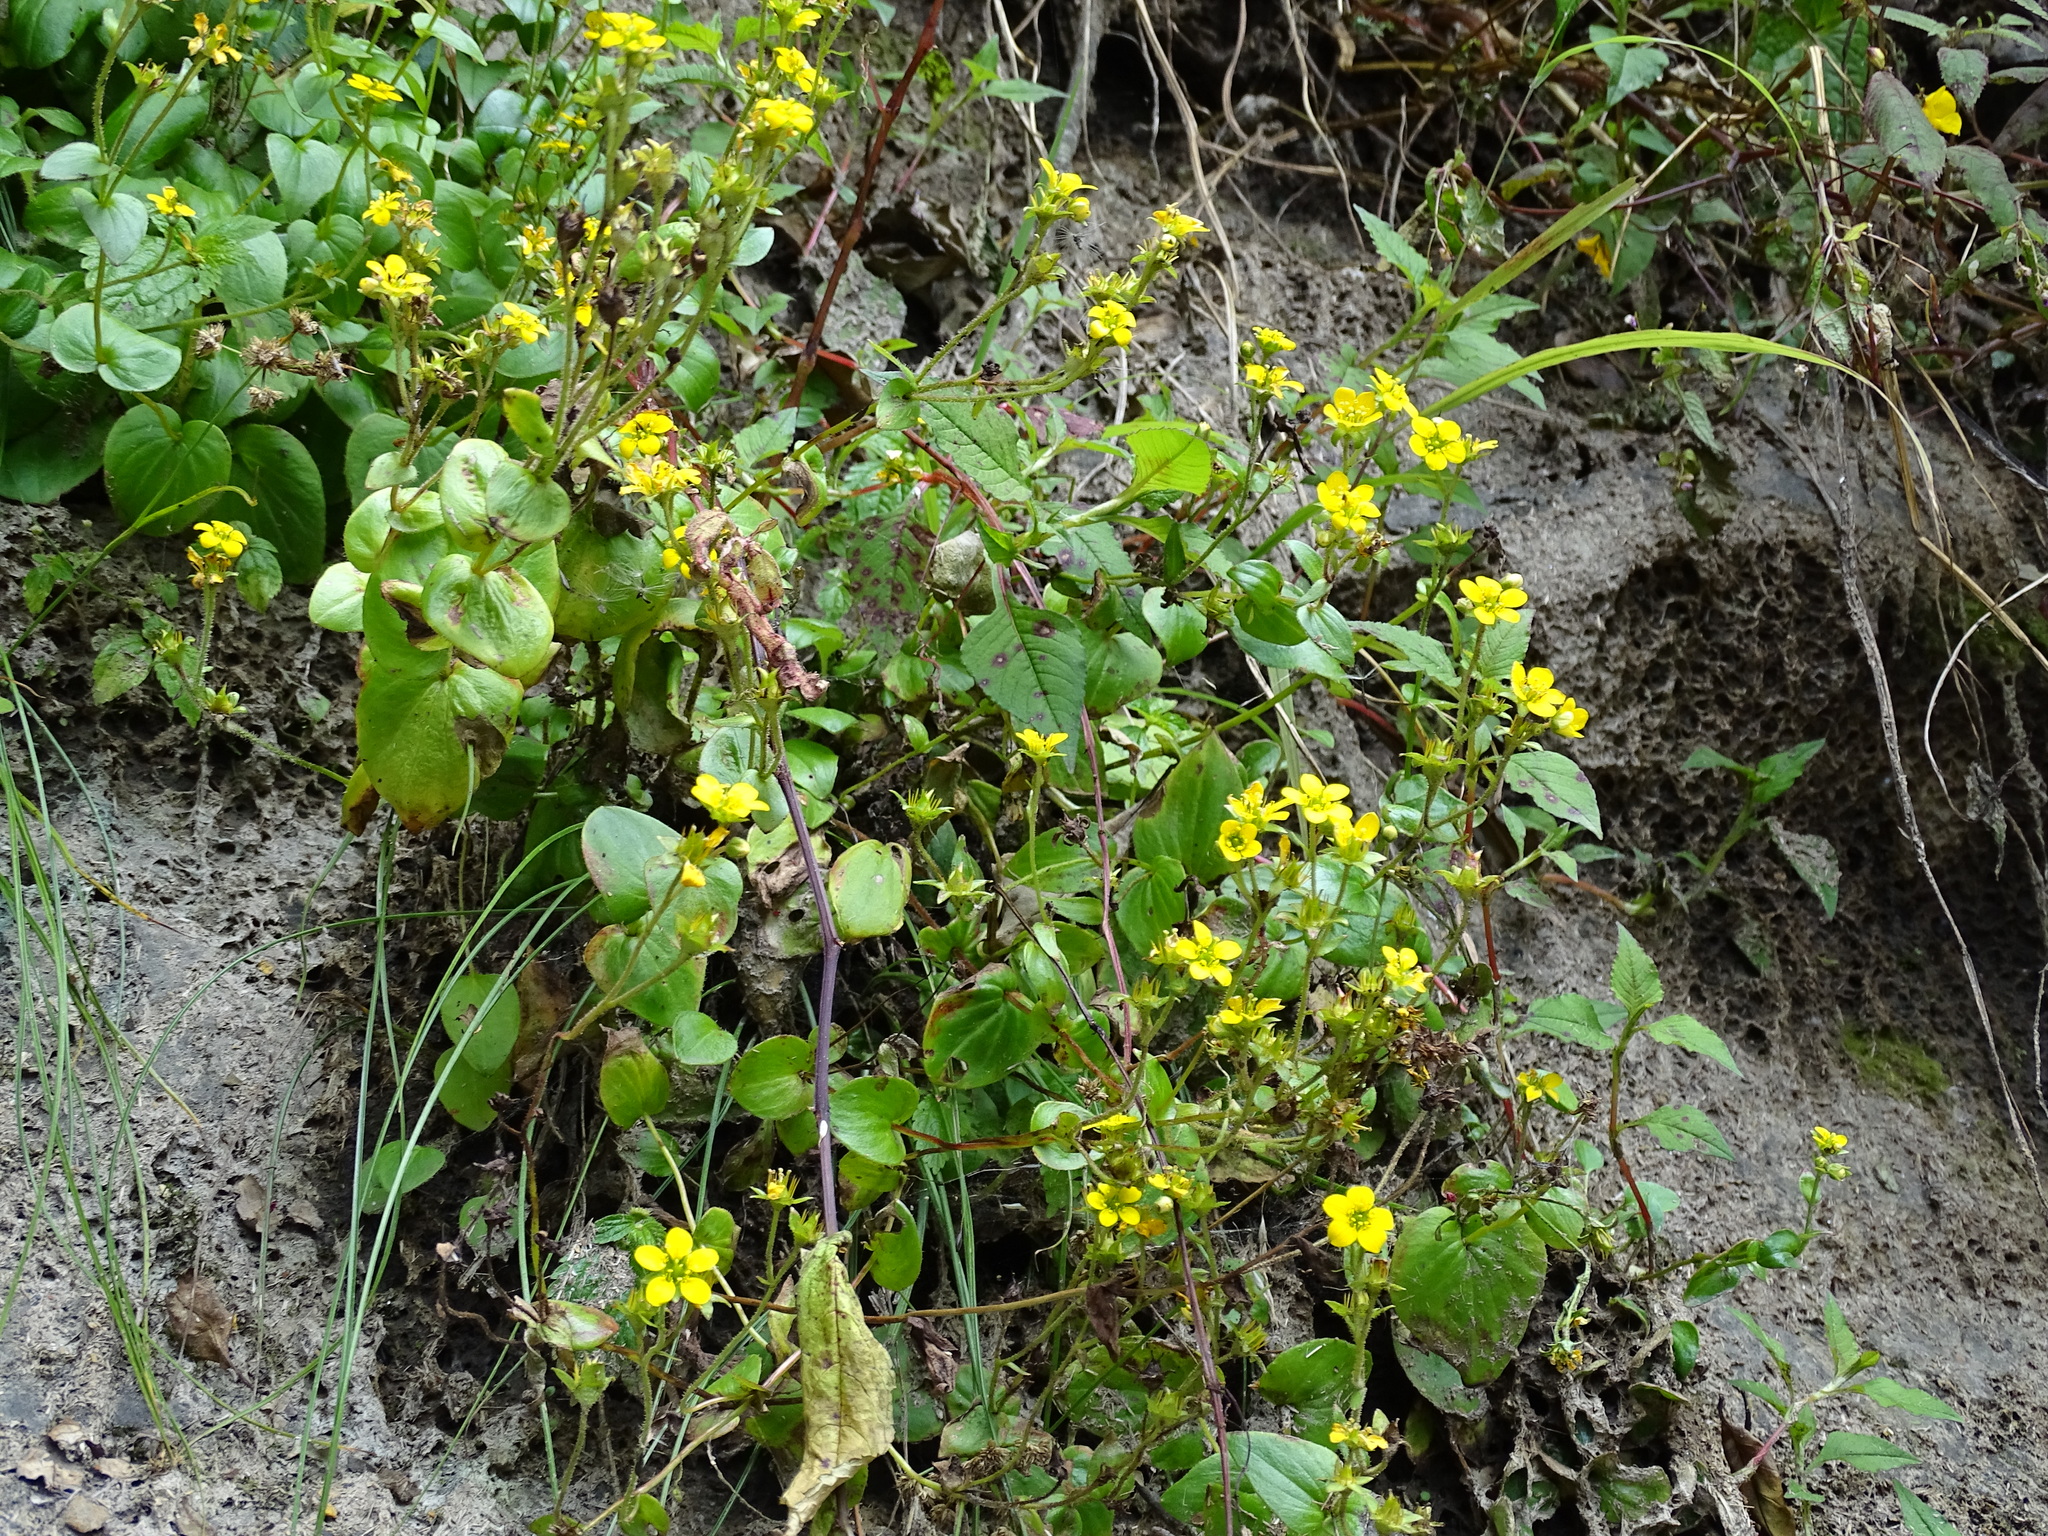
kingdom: Plantae
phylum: Tracheophyta
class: Magnoliopsida
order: Saxifragales
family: Saxifragaceae
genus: Saxifraga
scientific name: Saxifraga parnassifolia
